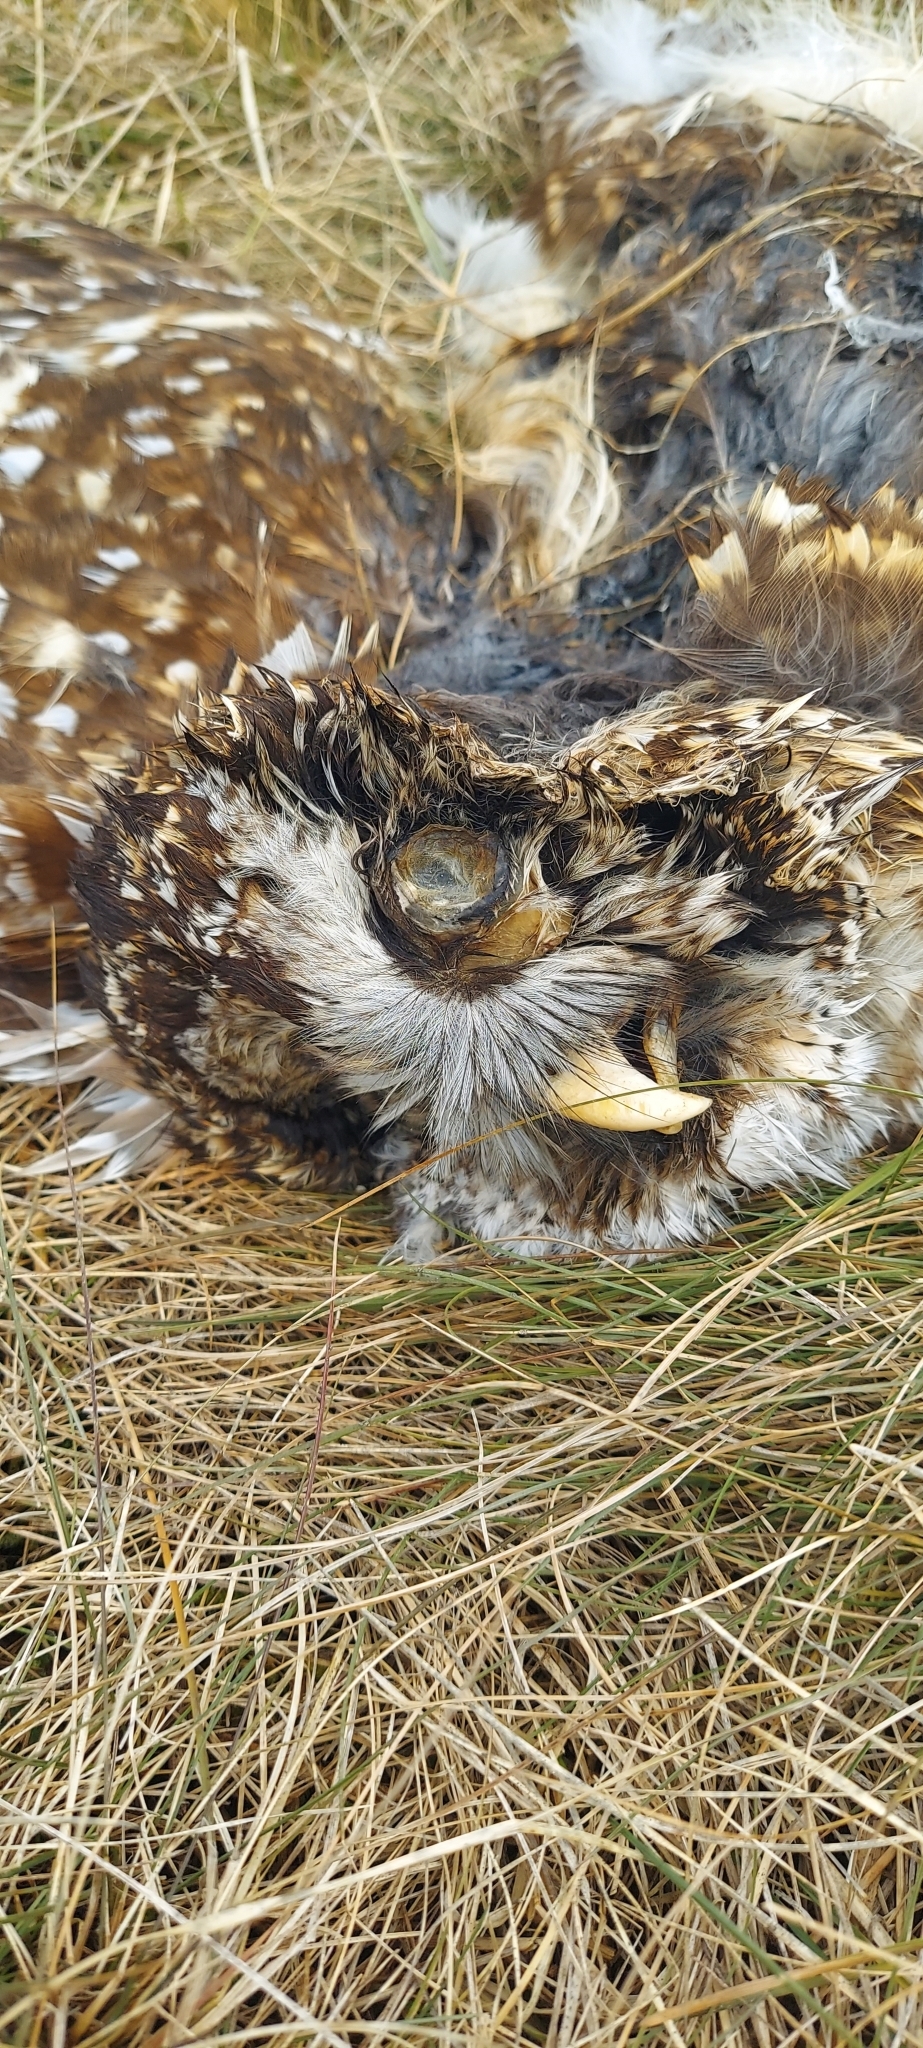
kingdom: Animalia
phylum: Chordata
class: Aves
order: Strigiformes
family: Strigidae
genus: Strix
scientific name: Strix varia
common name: Barred owl
